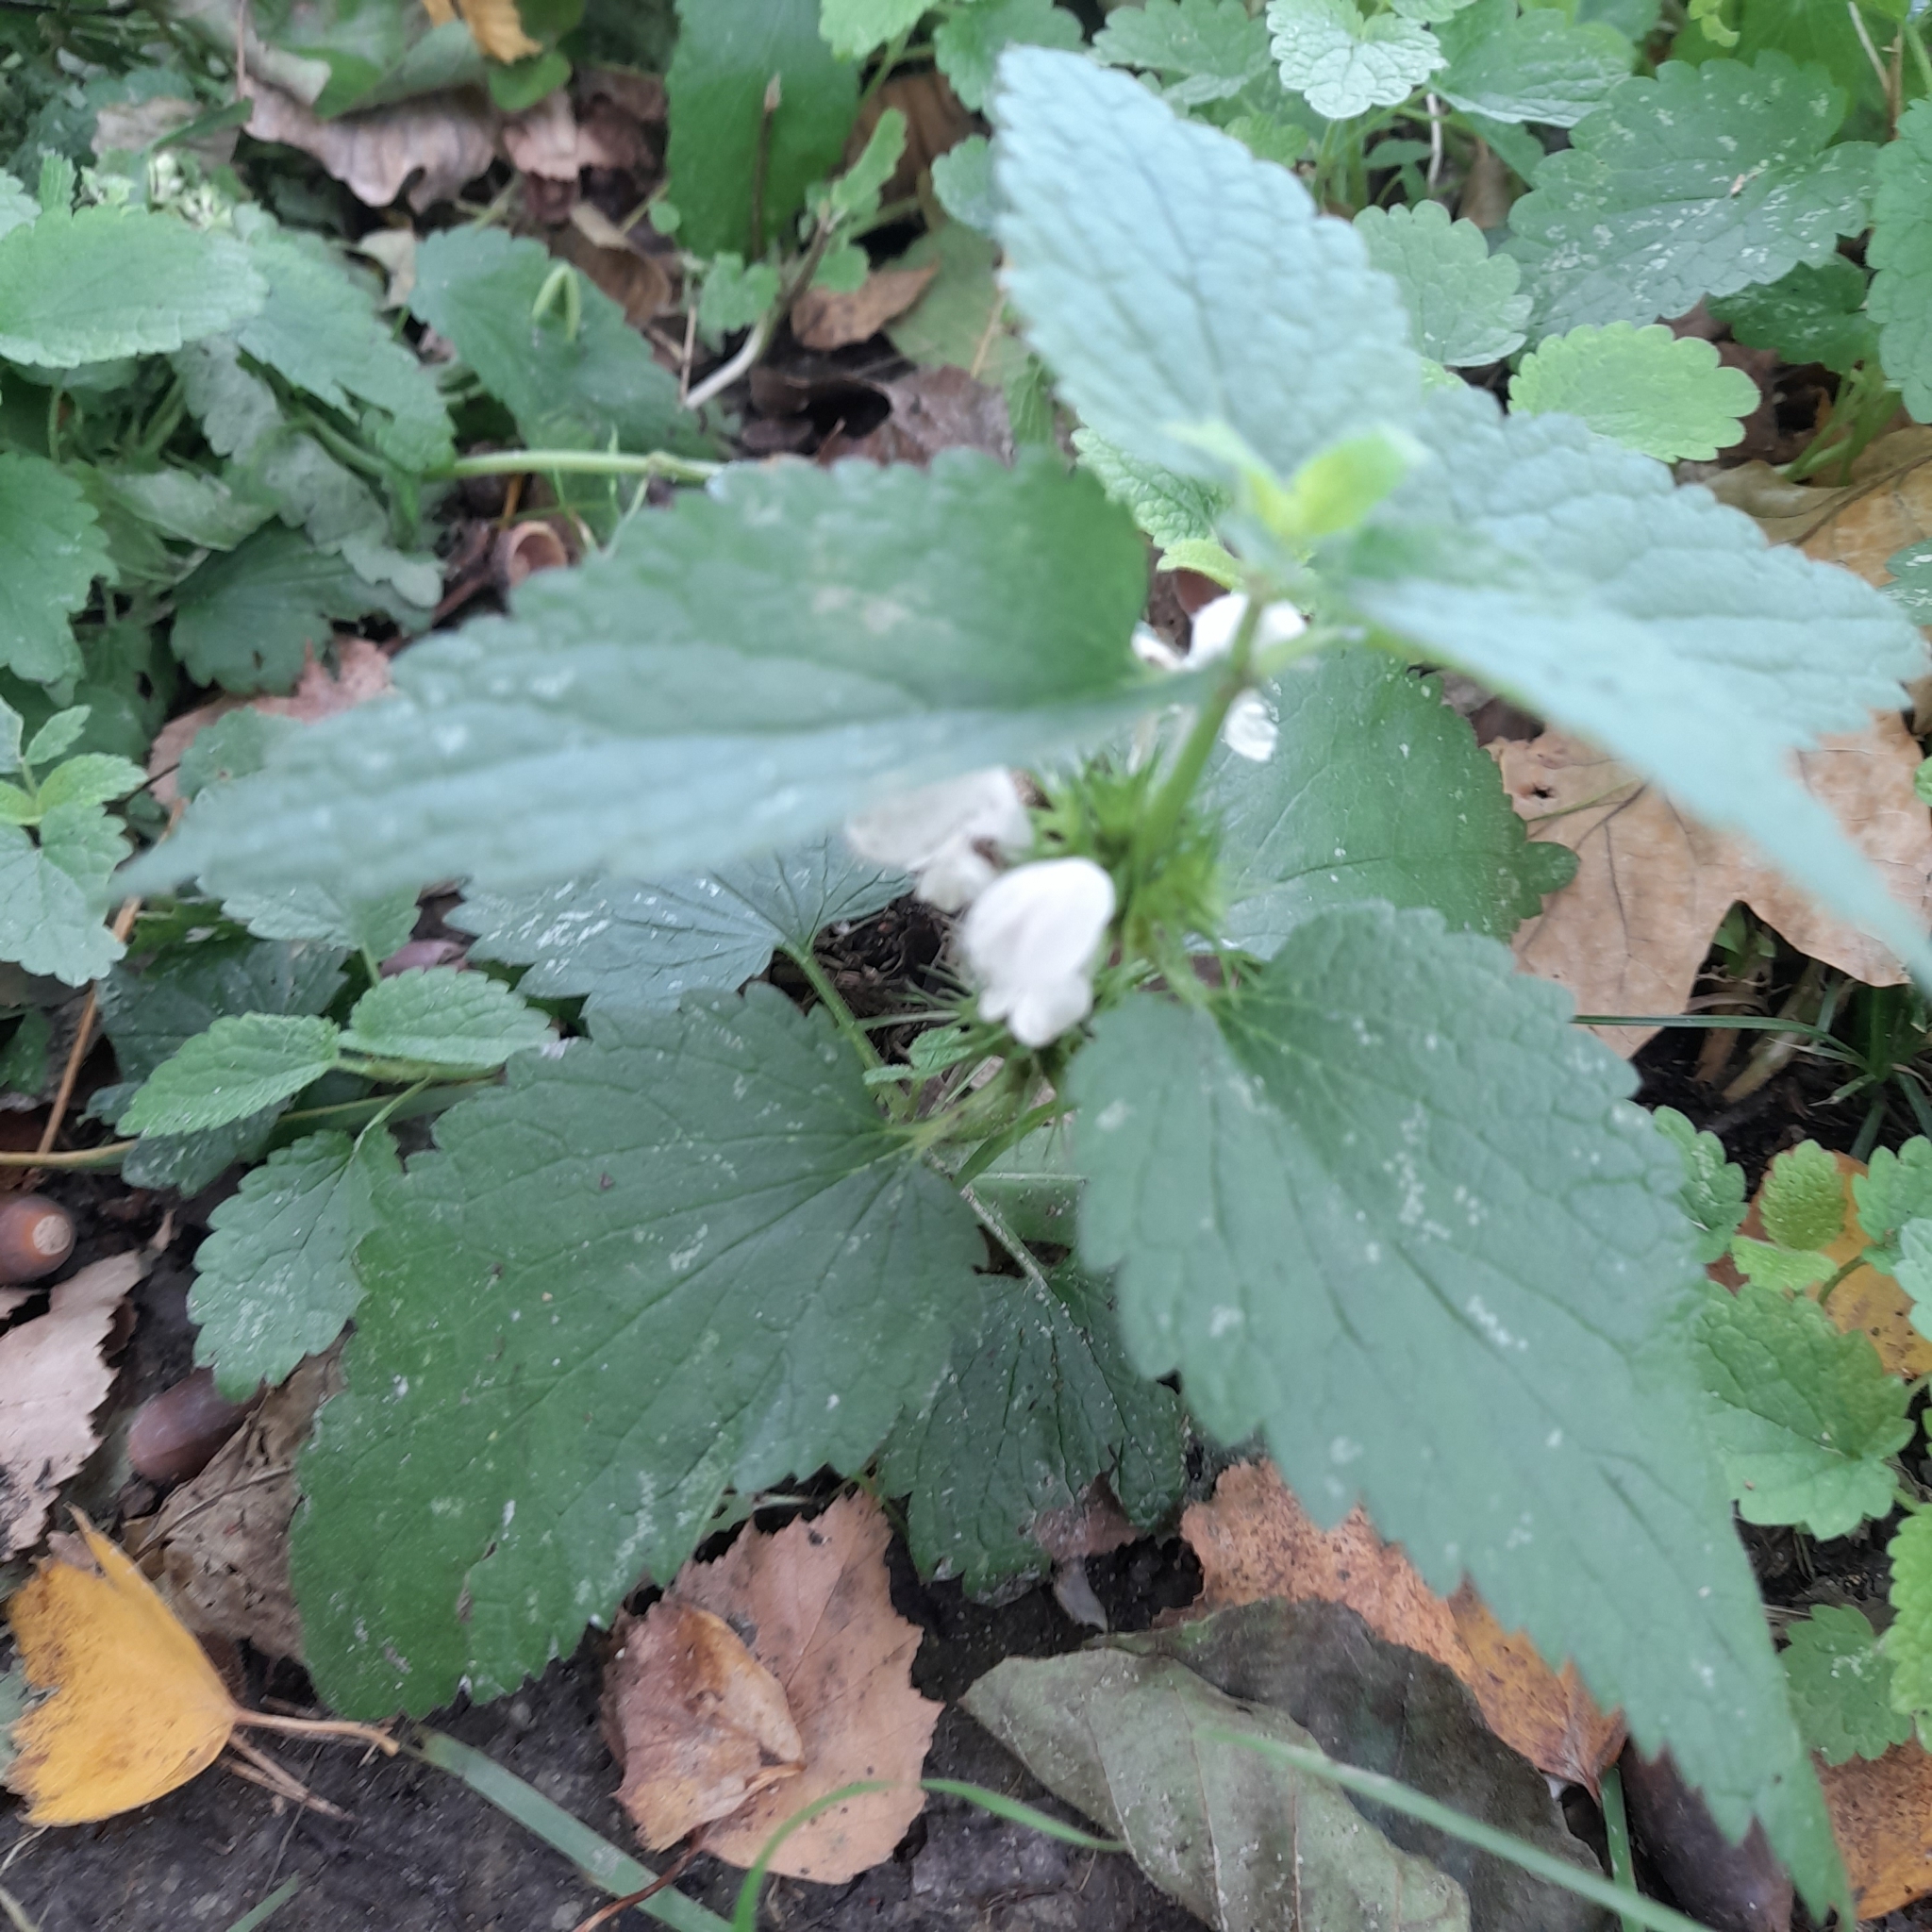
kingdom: Plantae
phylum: Tracheophyta
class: Magnoliopsida
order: Lamiales
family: Lamiaceae
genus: Lamium
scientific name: Lamium album
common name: White dead-nettle
